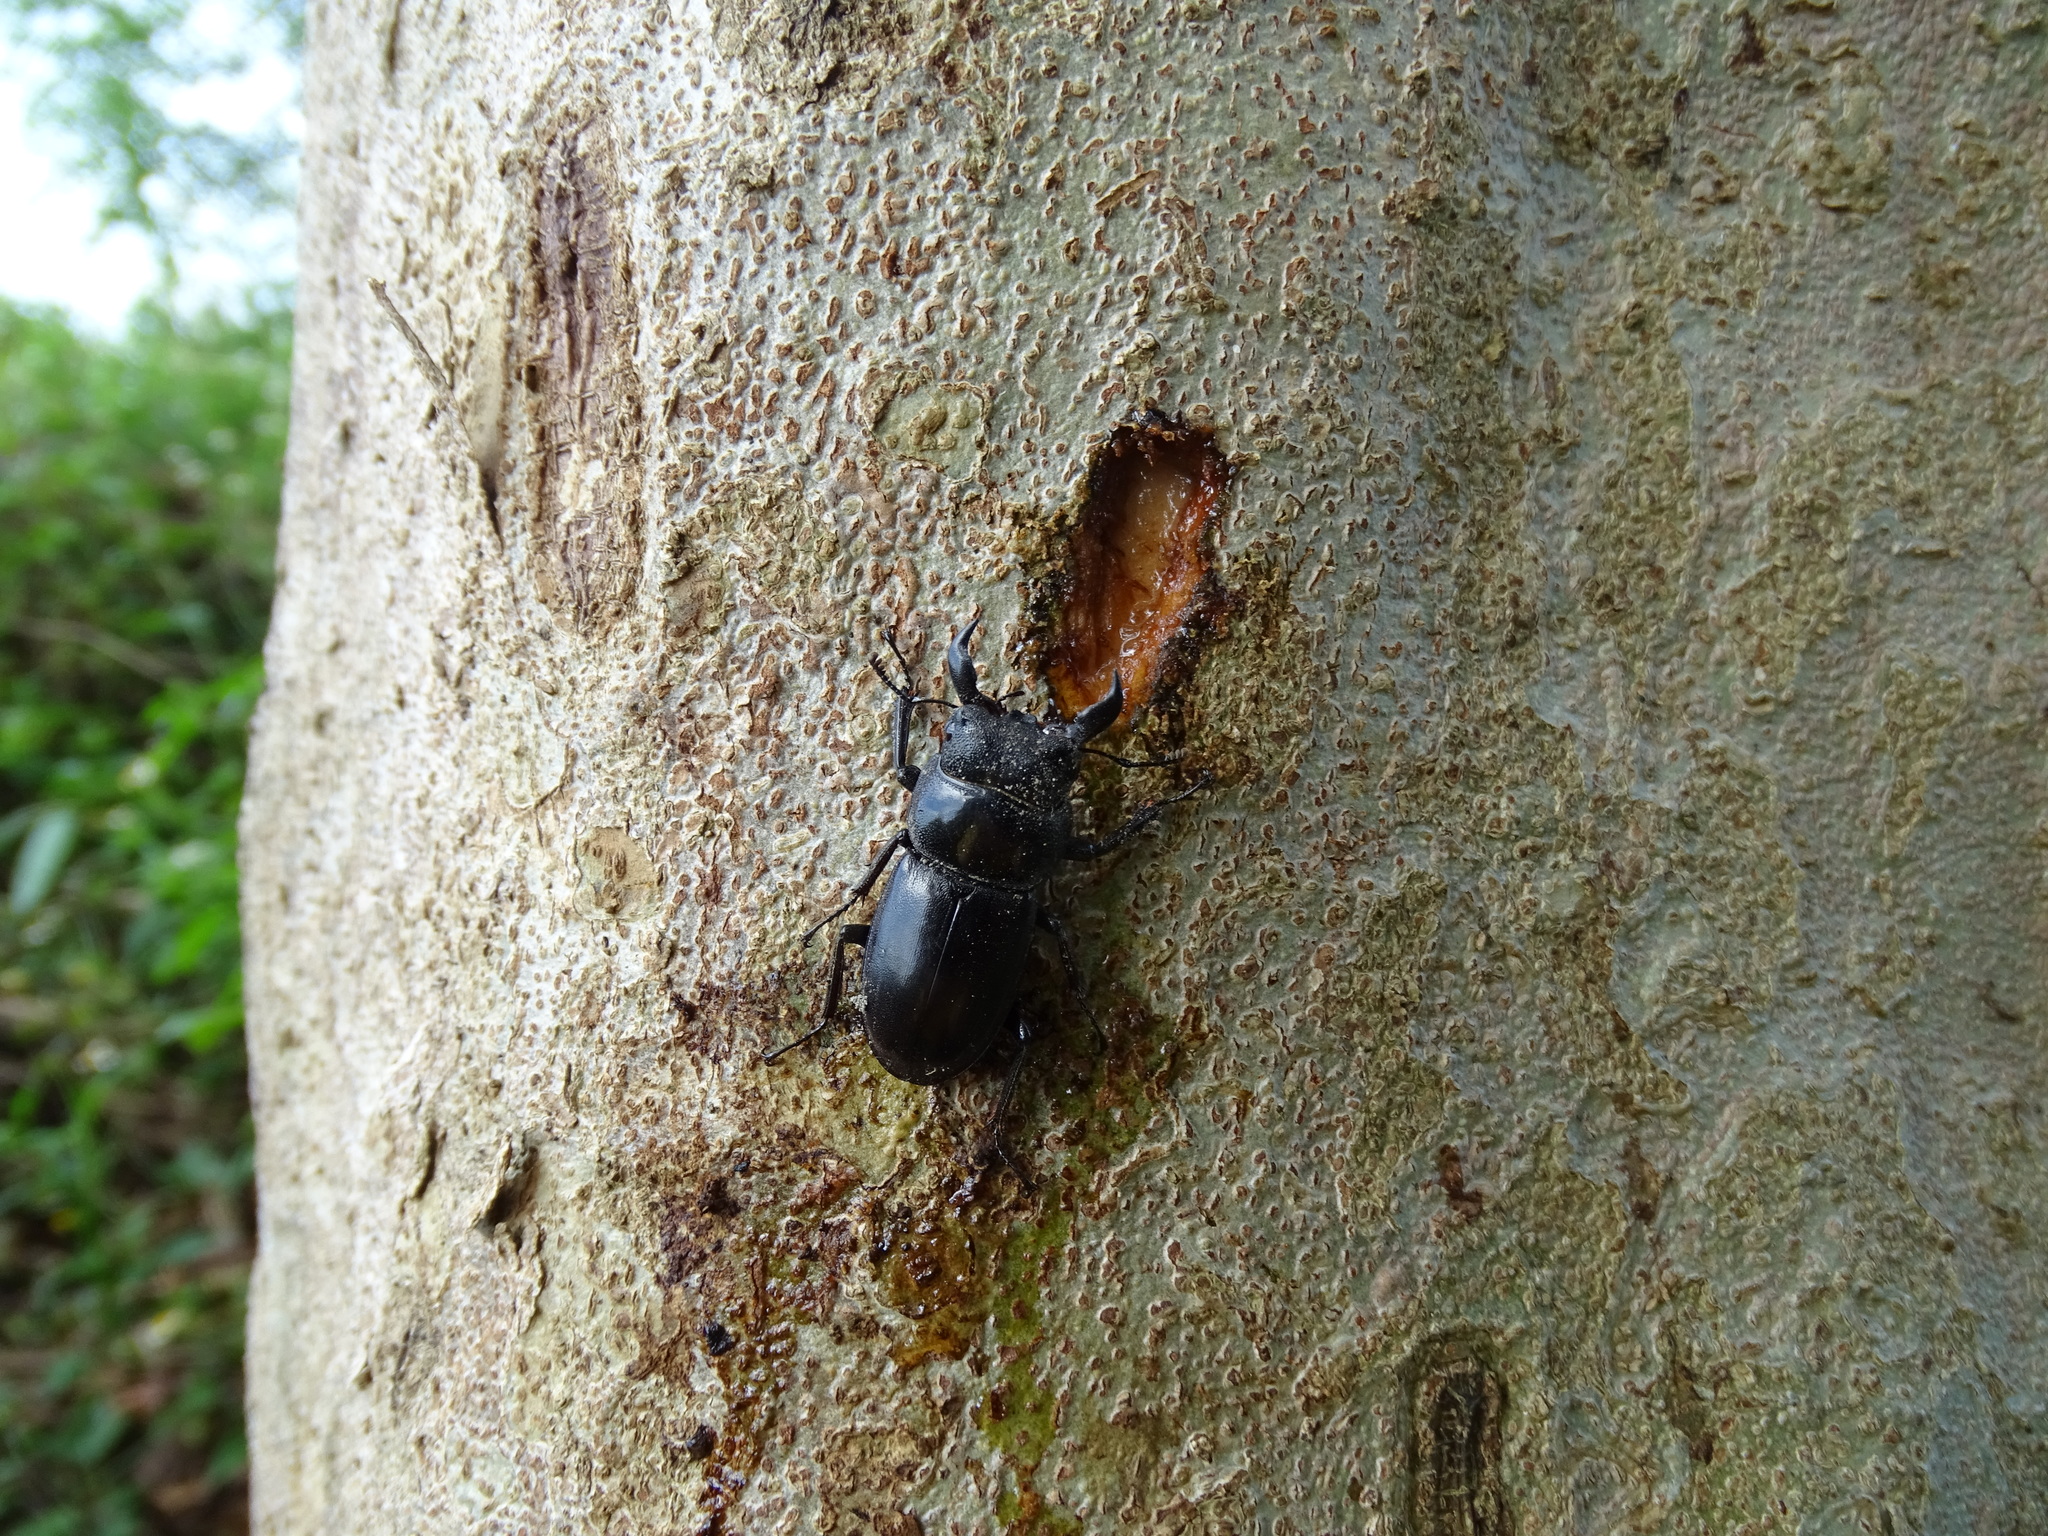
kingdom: Animalia
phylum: Arthropoda
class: Insecta
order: Coleoptera
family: Lucanidae
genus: Serrognathus
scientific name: Serrognathus titanus
